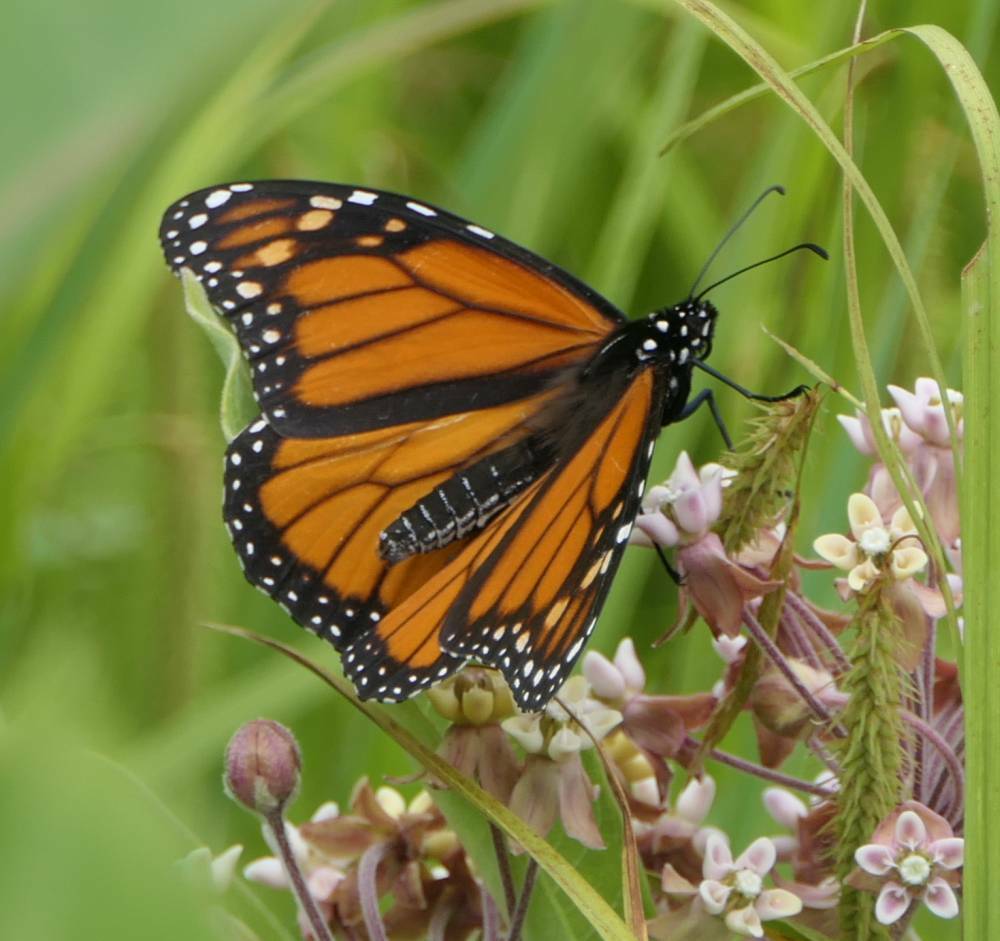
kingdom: Animalia
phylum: Arthropoda
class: Insecta
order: Lepidoptera
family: Nymphalidae
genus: Danaus
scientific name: Danaus plexippus
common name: Monarch
